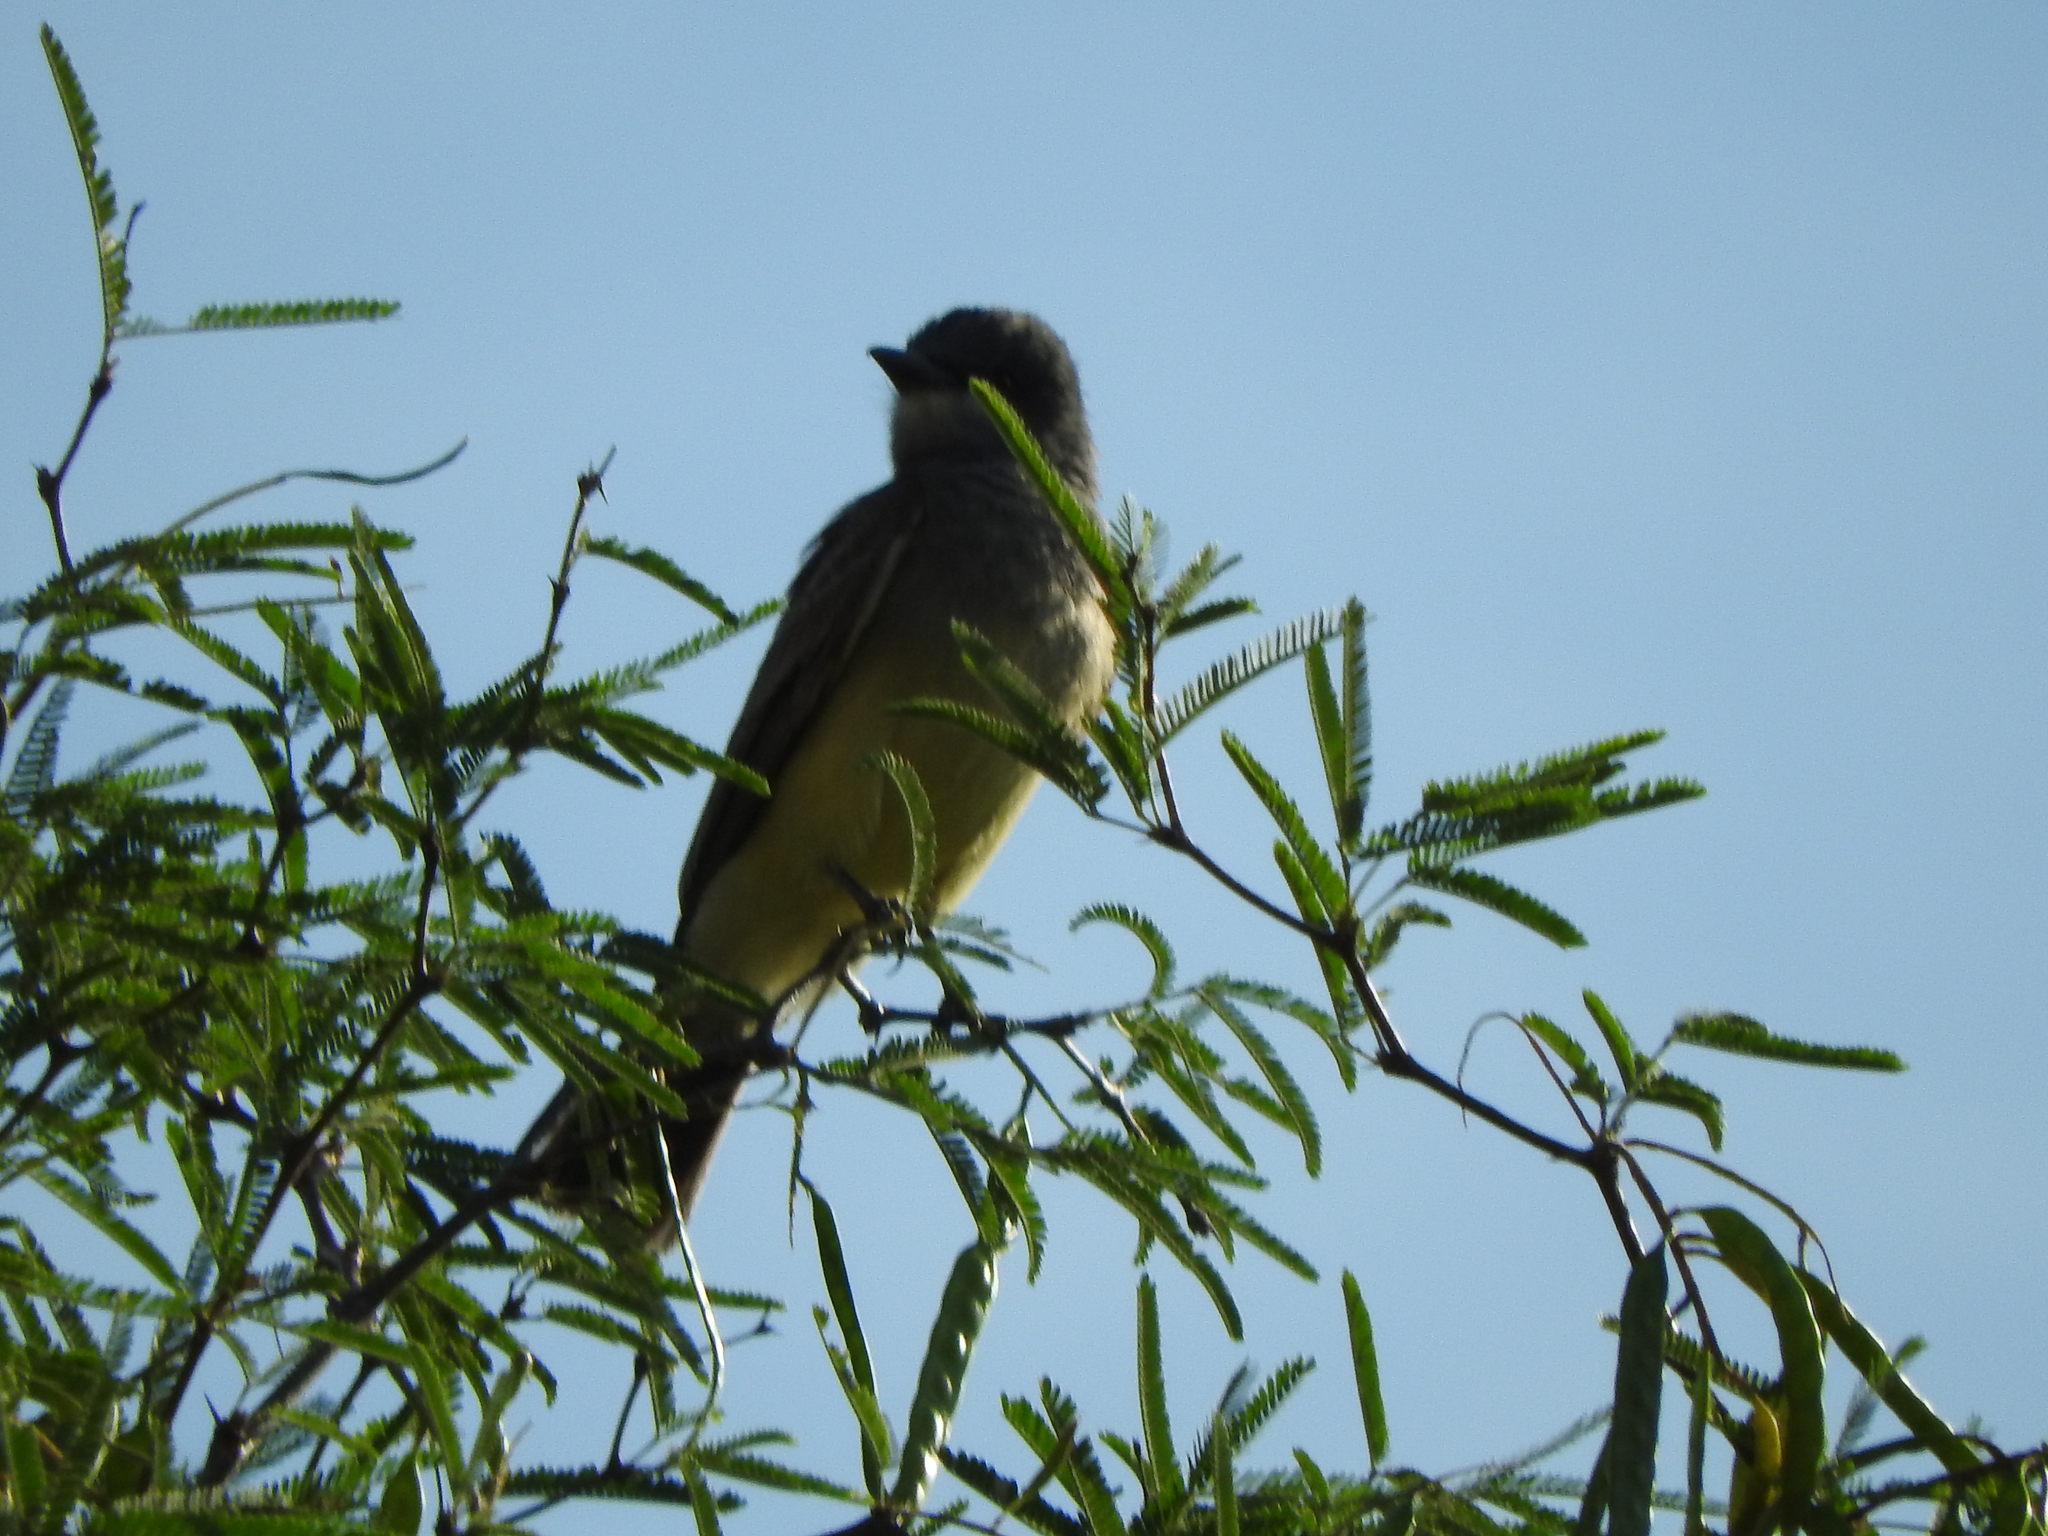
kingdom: Animalia
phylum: Chordata
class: Aves
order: Passeriformes
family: Tyrannidae
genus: Tyrannus
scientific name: Tyrannus vociferans
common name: Cassin's kingbird
